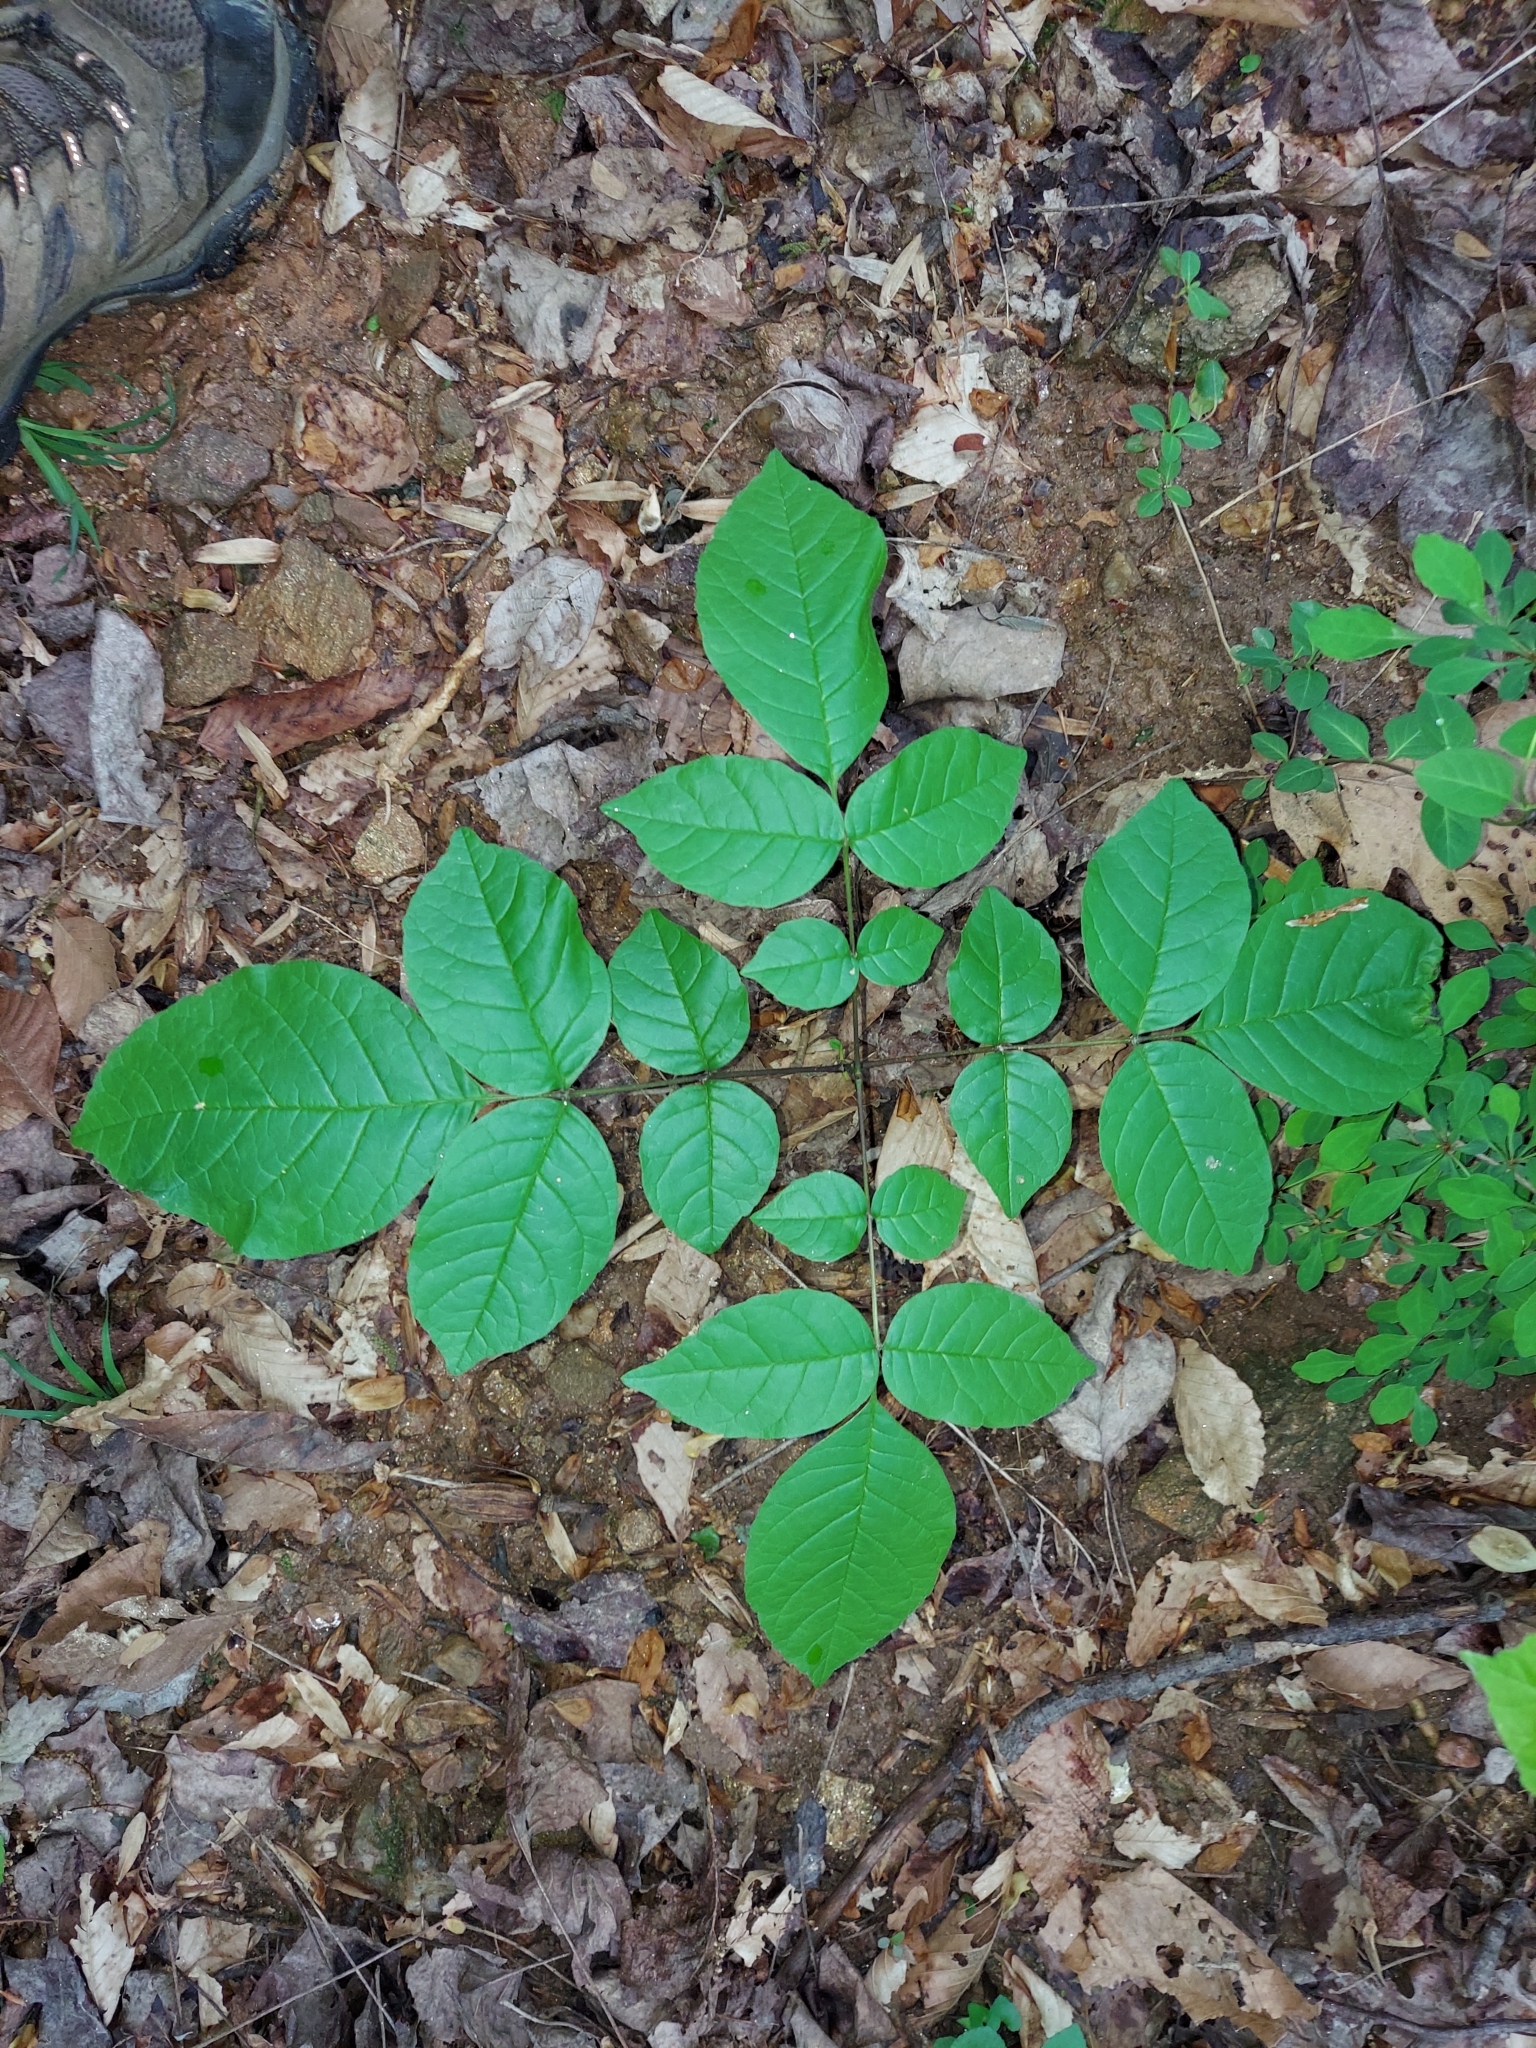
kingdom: Plantae
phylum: Tracheophyta
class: Magnoliopsida
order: Lamiales
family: Oleaceae
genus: Fraxinus
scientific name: Fraxinus americana
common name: White ash
